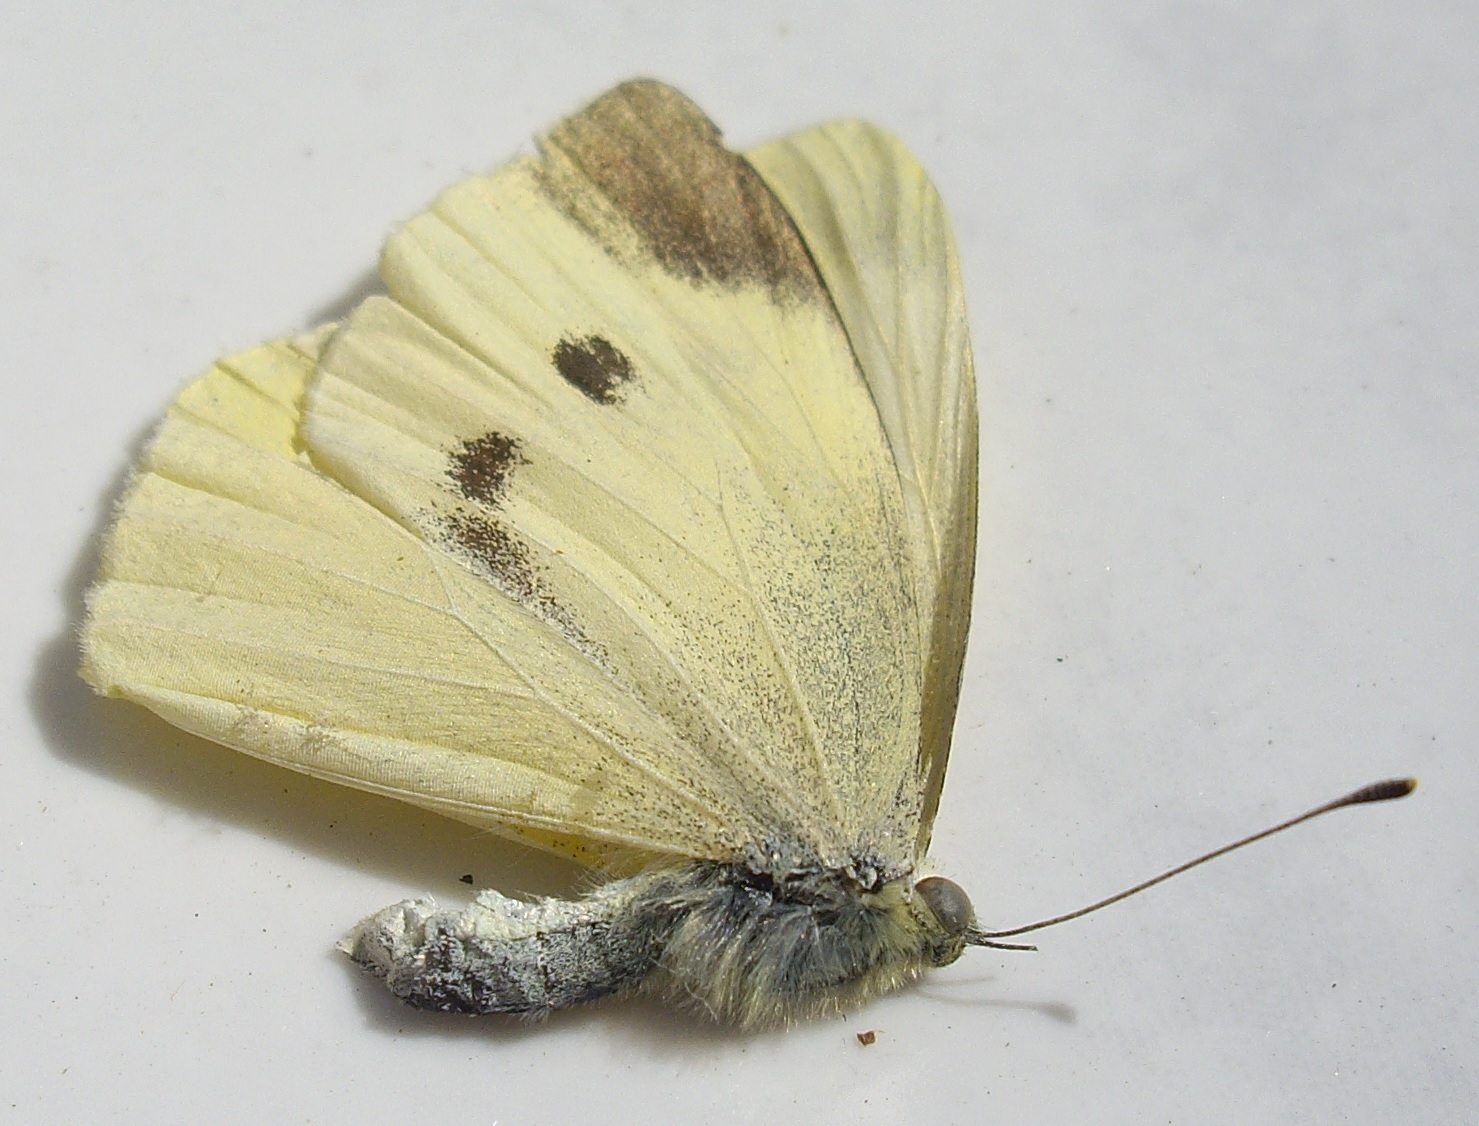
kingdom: Animalia
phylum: Arthropoda
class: Insecta
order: Lepidoptera
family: Pieridae
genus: Pieris
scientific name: Pieris rapae
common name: Small white
